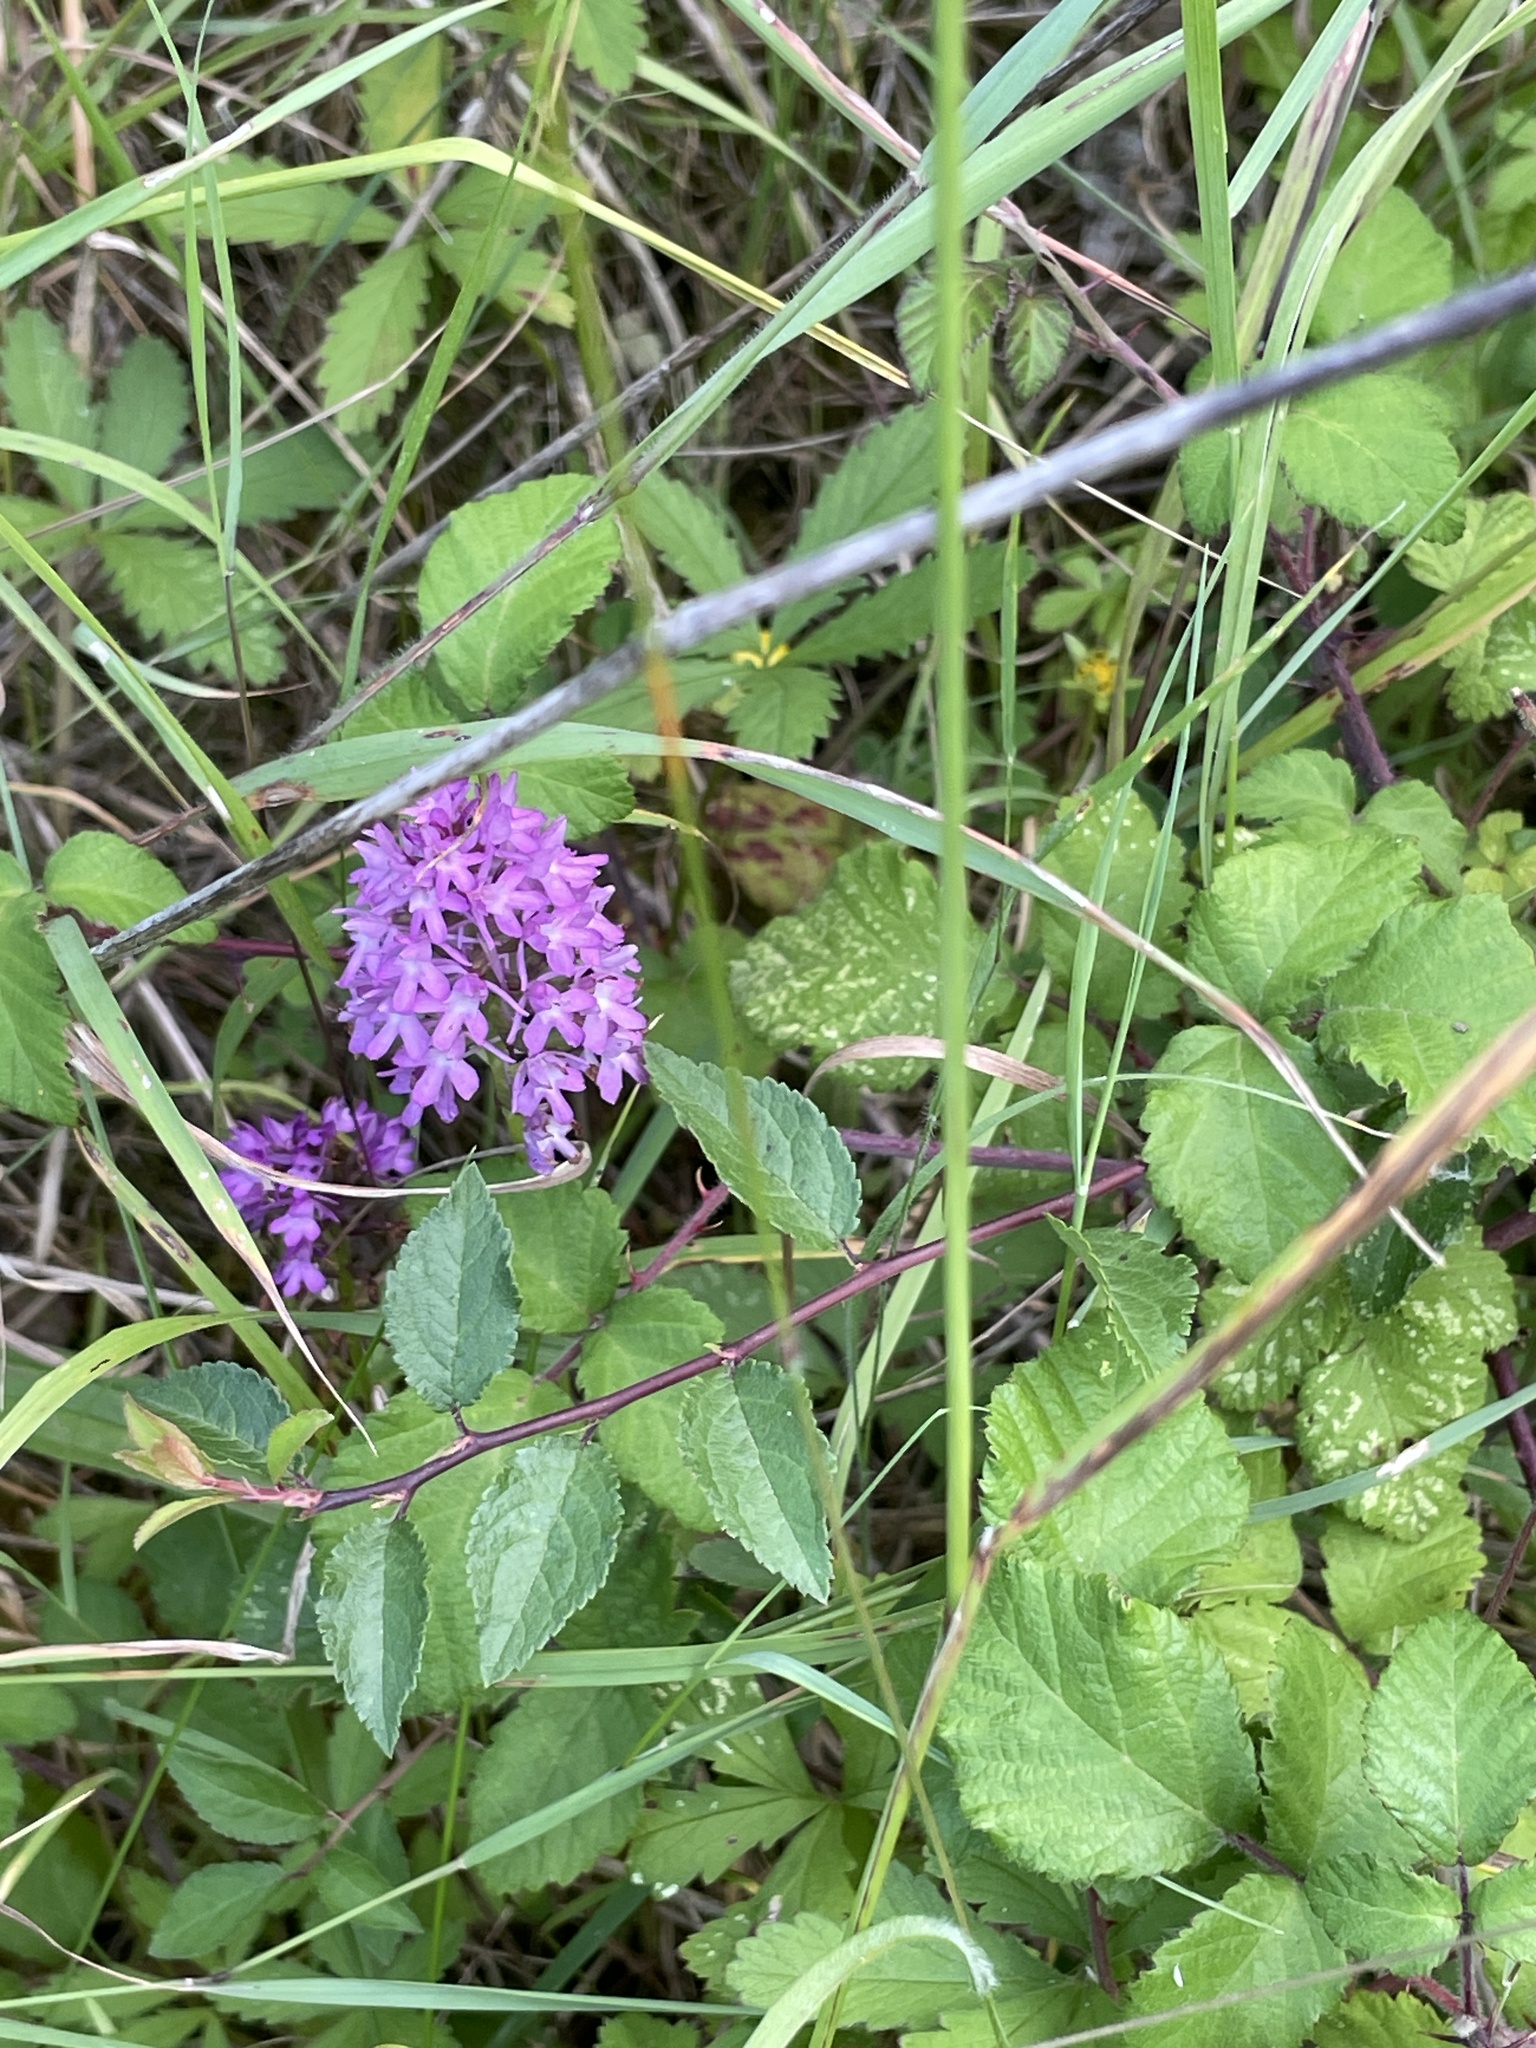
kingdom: Plantae
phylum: Tracheophyta
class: Liliopsida
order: Asparagales
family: Orchidaceae
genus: Anacamptis
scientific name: Anacamptis pyramidalis
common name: Pyramidal orchid
